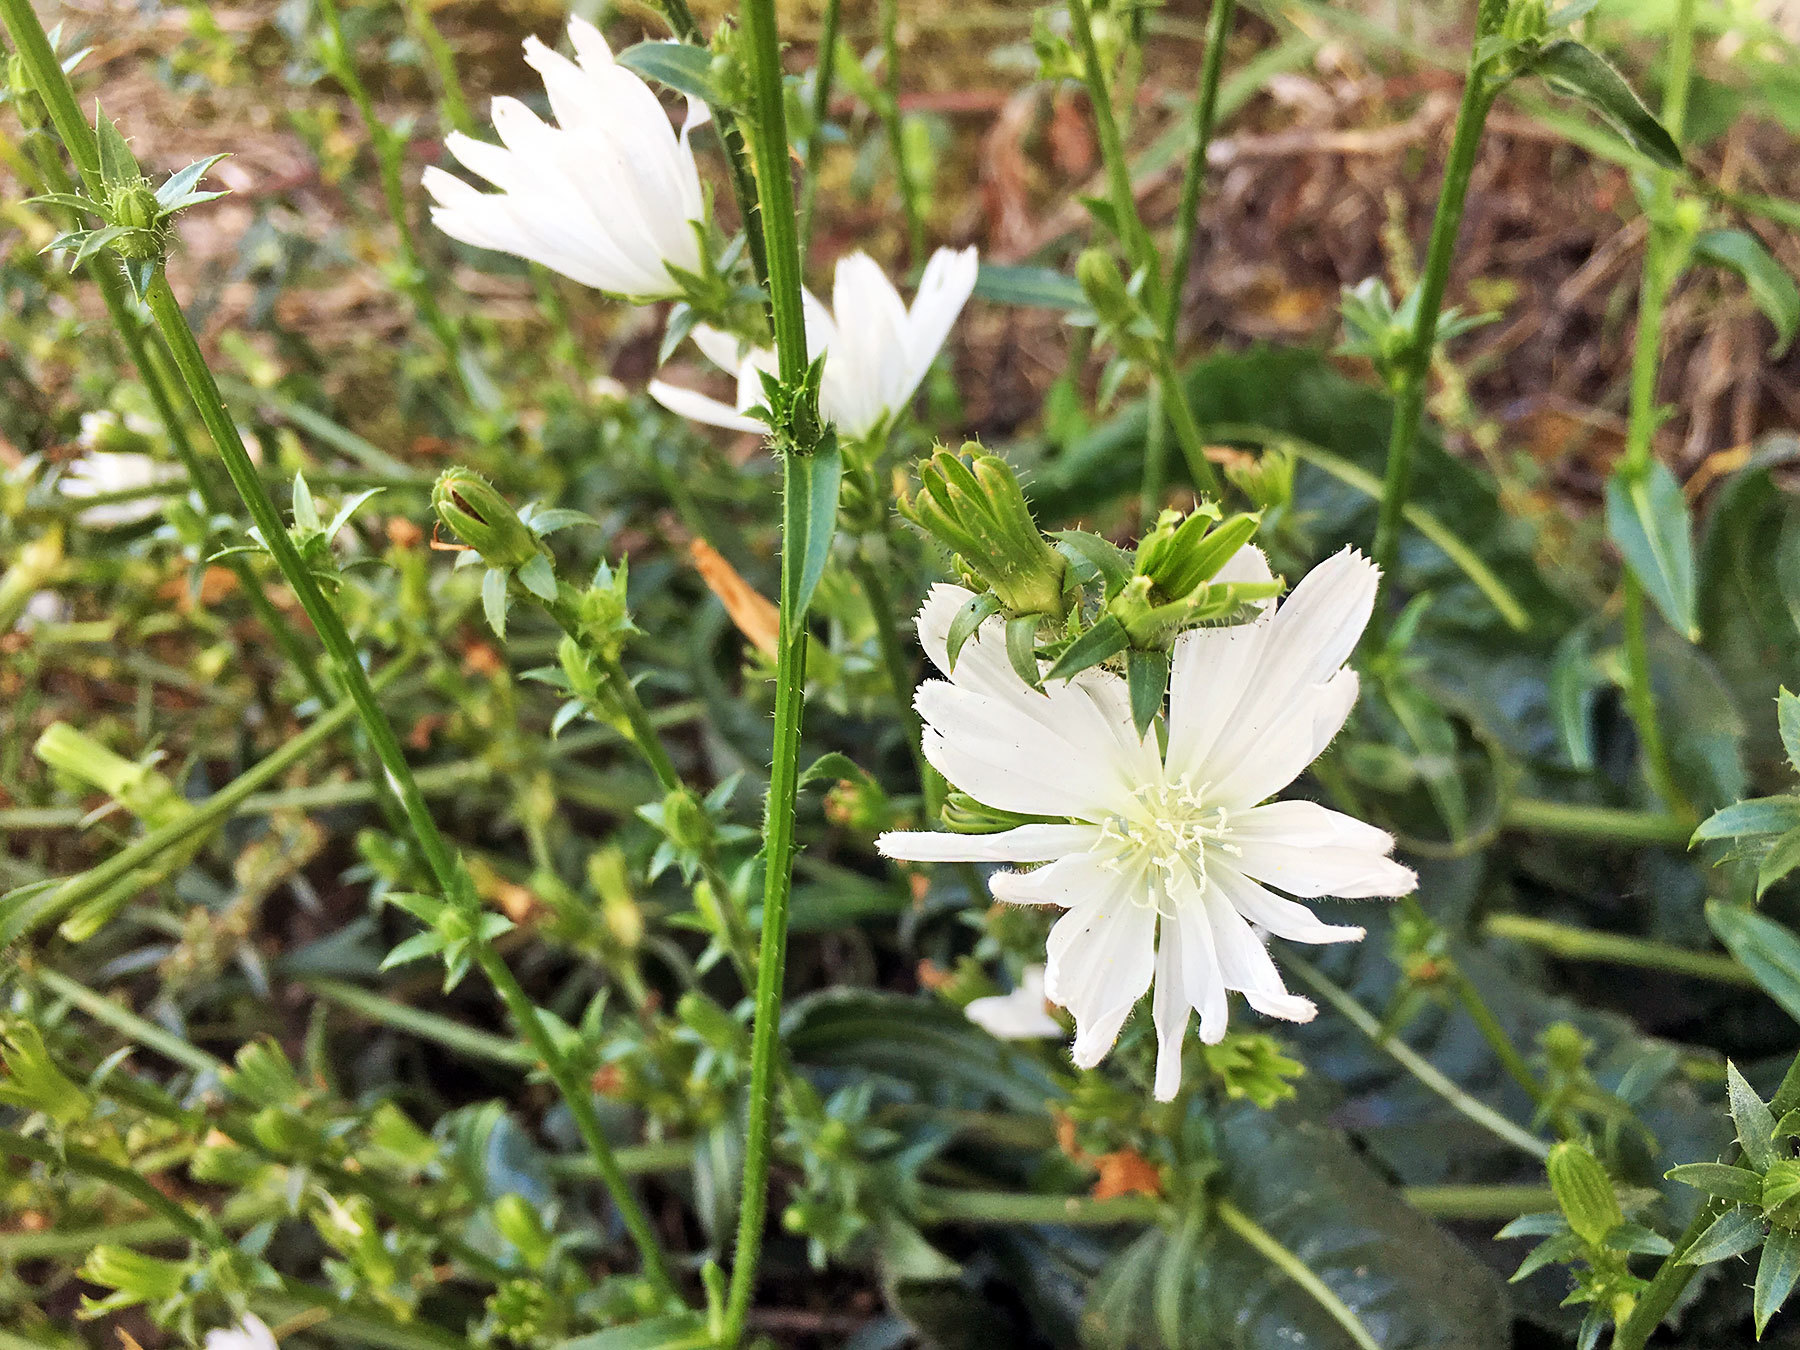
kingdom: Plantae
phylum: Tracheophyta
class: Magnoliopsida
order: Asterales
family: Asteraceae
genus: Cichorium
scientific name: Cichorium intybus
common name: Chicory
